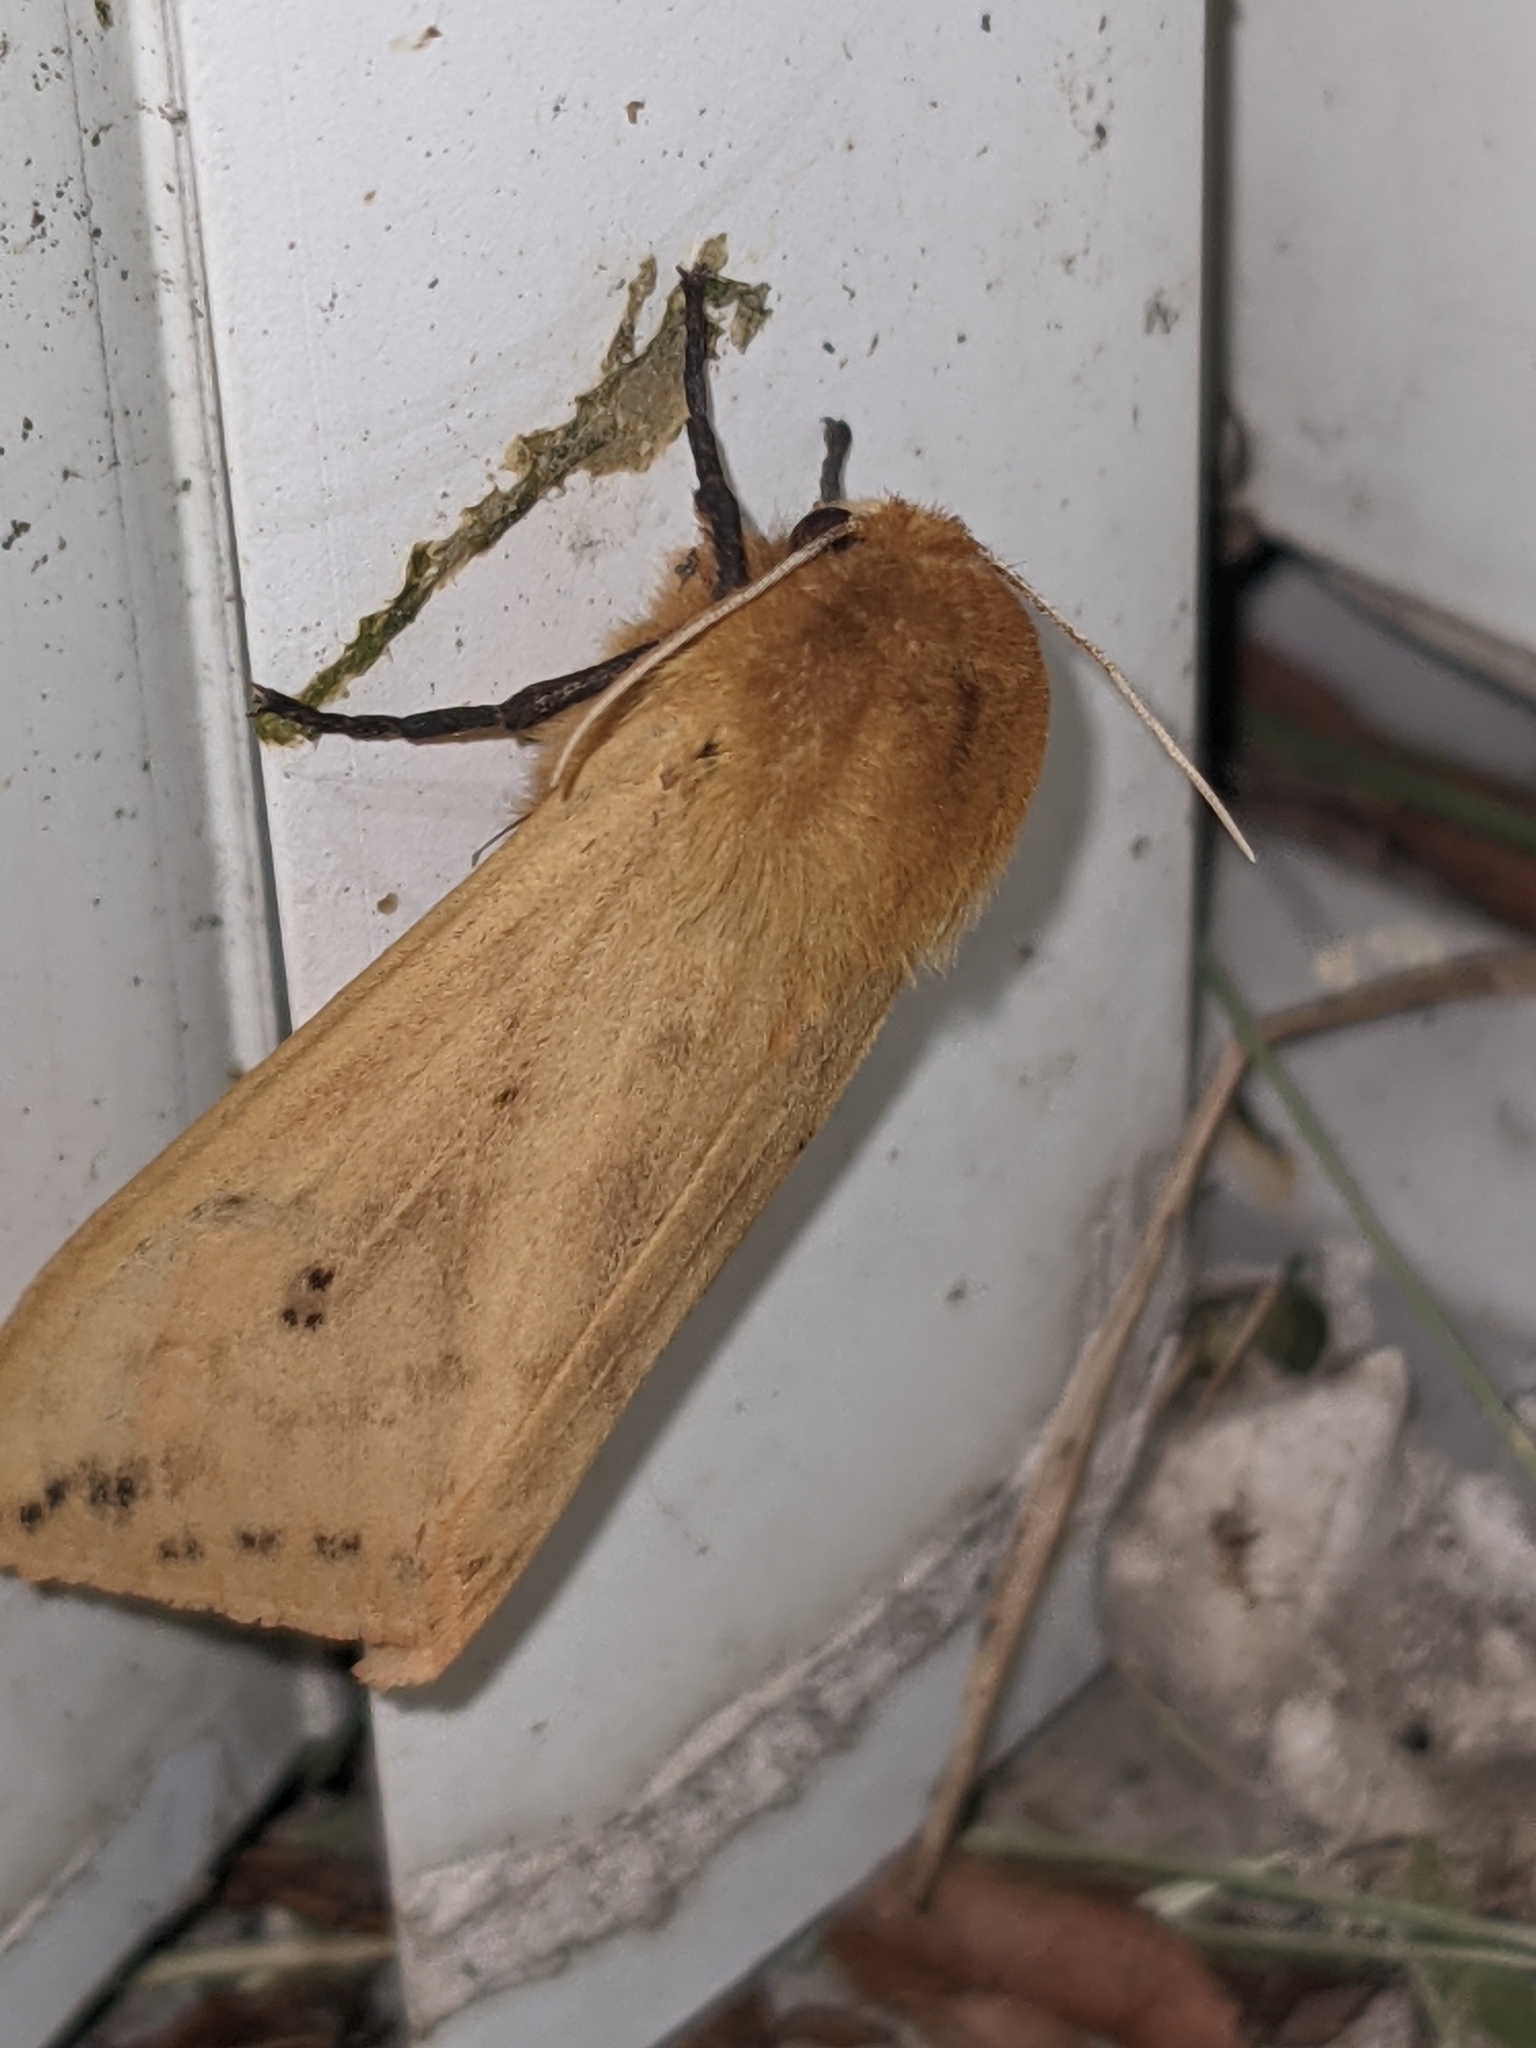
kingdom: Animalia
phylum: Arthropoda
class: Insecta
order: Lepidoptera
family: Erebidae
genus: Pyrrharctia
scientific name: Pyrrharctia isabella
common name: Isabella tiger moth
